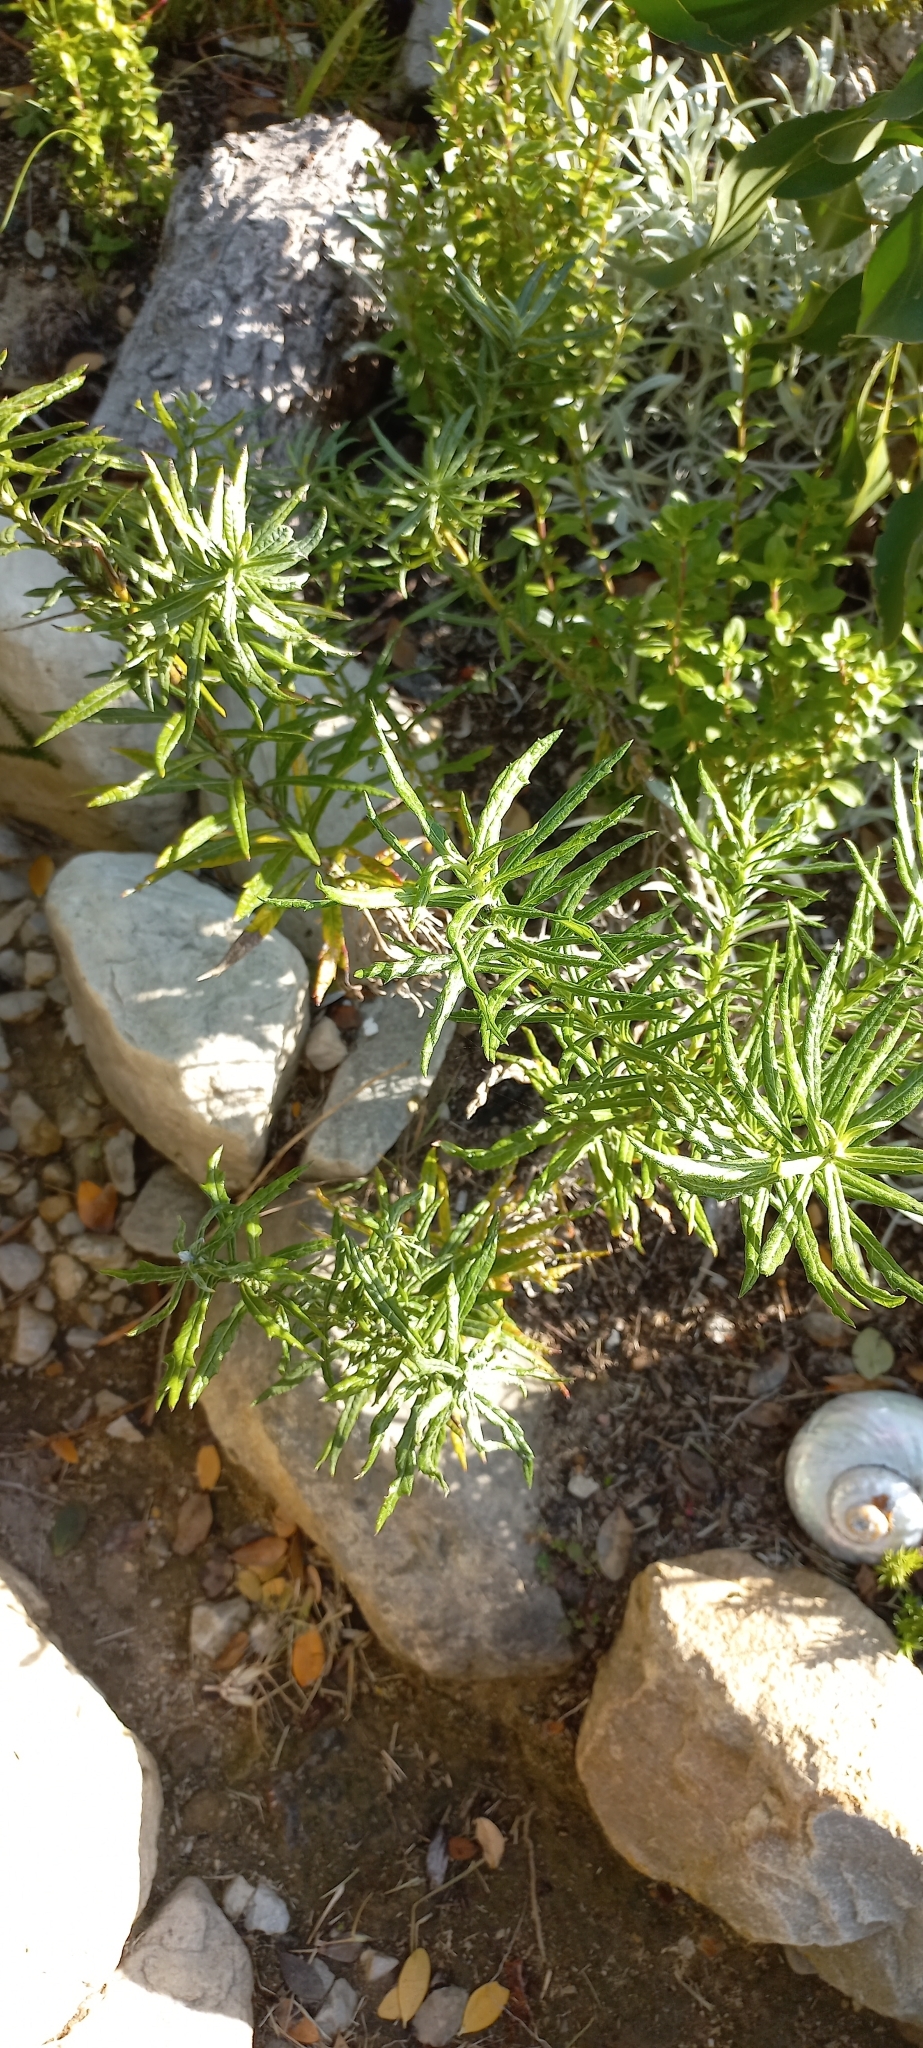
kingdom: Plantae
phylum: Tracheophyta
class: Magnoliopsida
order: Asterales
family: Asteraceae
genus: Senecio
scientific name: Senecio pterophorus
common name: Shoddy ragwort
